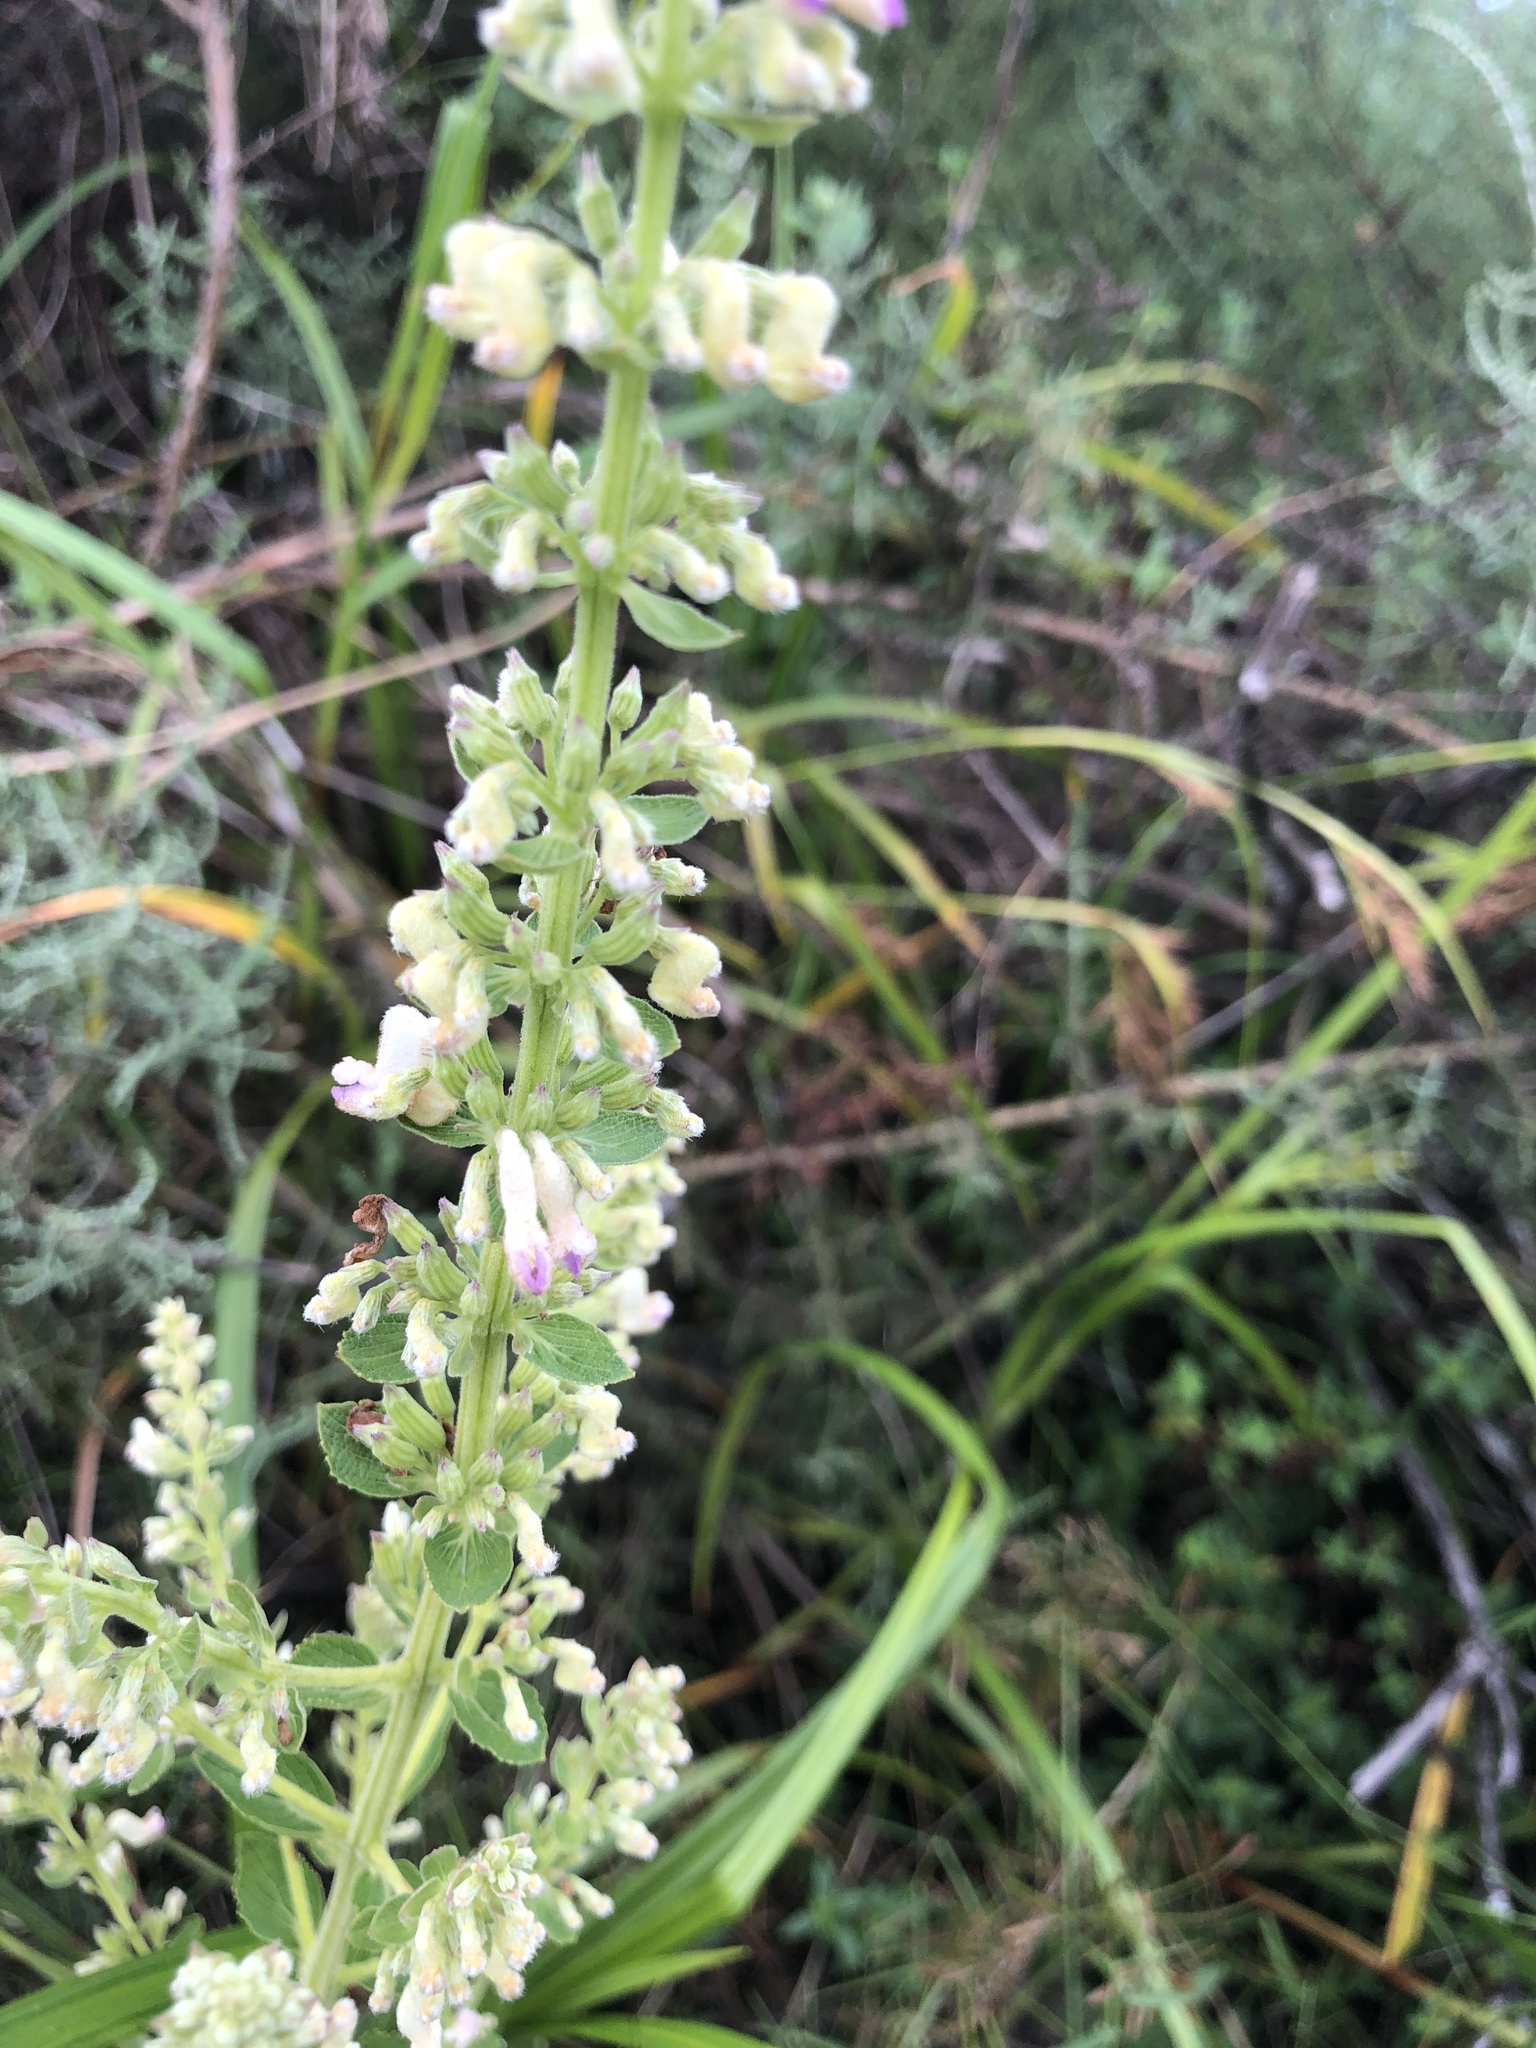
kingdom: Plantae
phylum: Tracheophyta
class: Magnoliopsida
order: Lamiales
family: Lamiaceae
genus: Coleus
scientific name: Coleus calycinus
